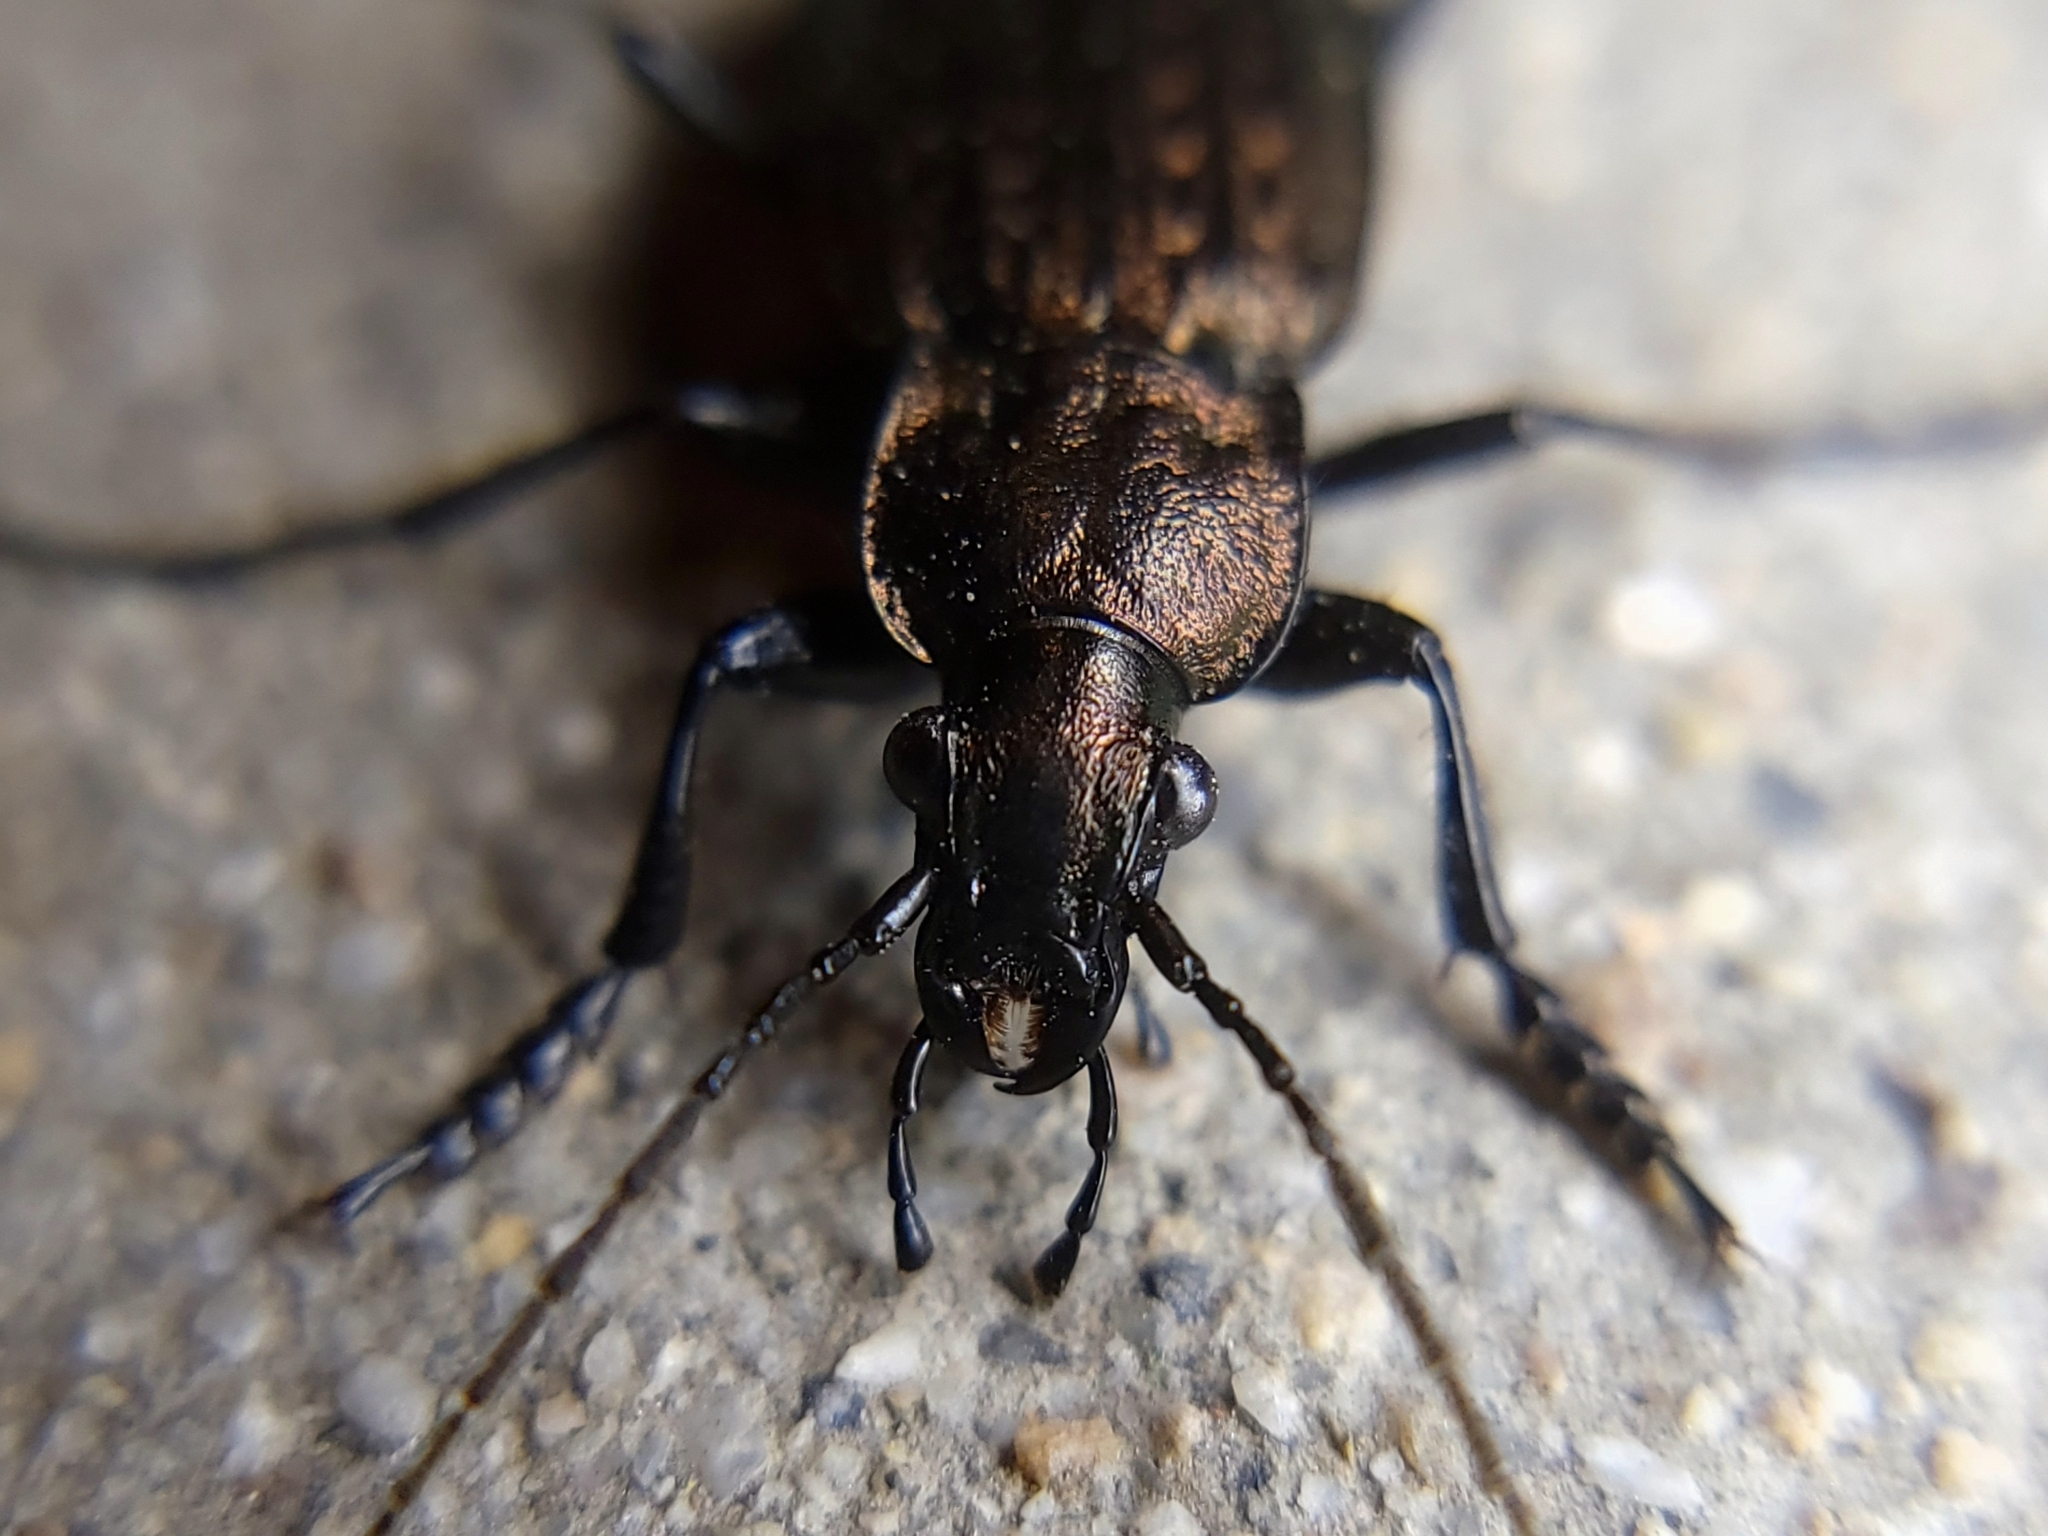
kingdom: Animalia
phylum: Arthropoda
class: Insecta
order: Coleoptera
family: Carabidae
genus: Carabus
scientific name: Carabus granulatus
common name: Granulate ground beetle
